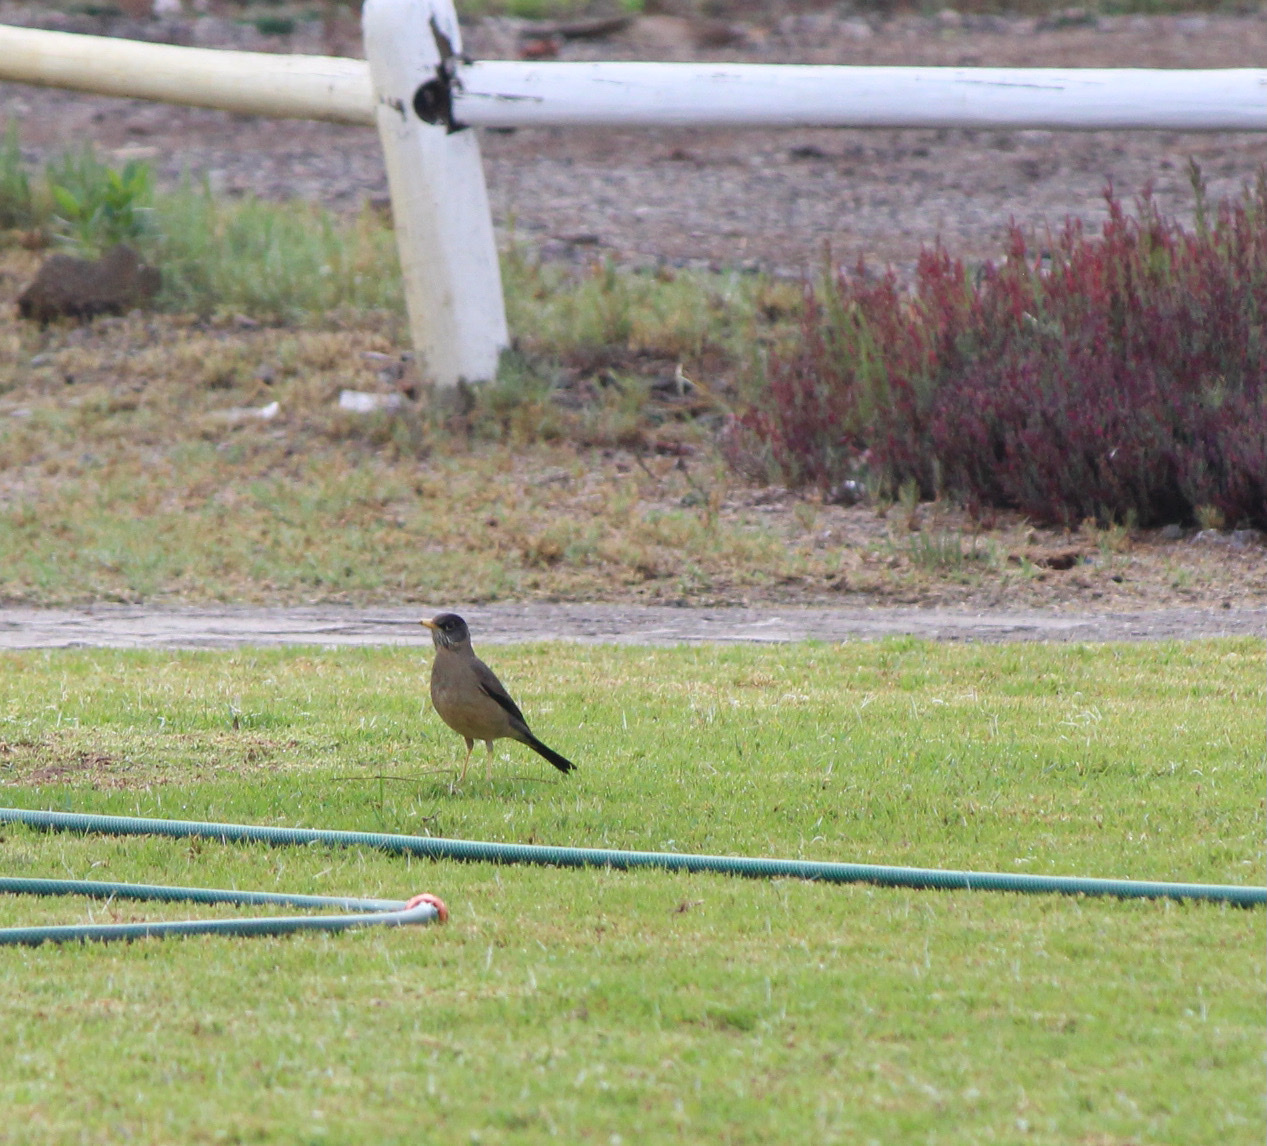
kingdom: Animalia
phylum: Chordata
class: Aves
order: Passeriformes
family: Turdidae
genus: Turdus
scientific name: Turdus falcklandii
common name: Austral thrush
